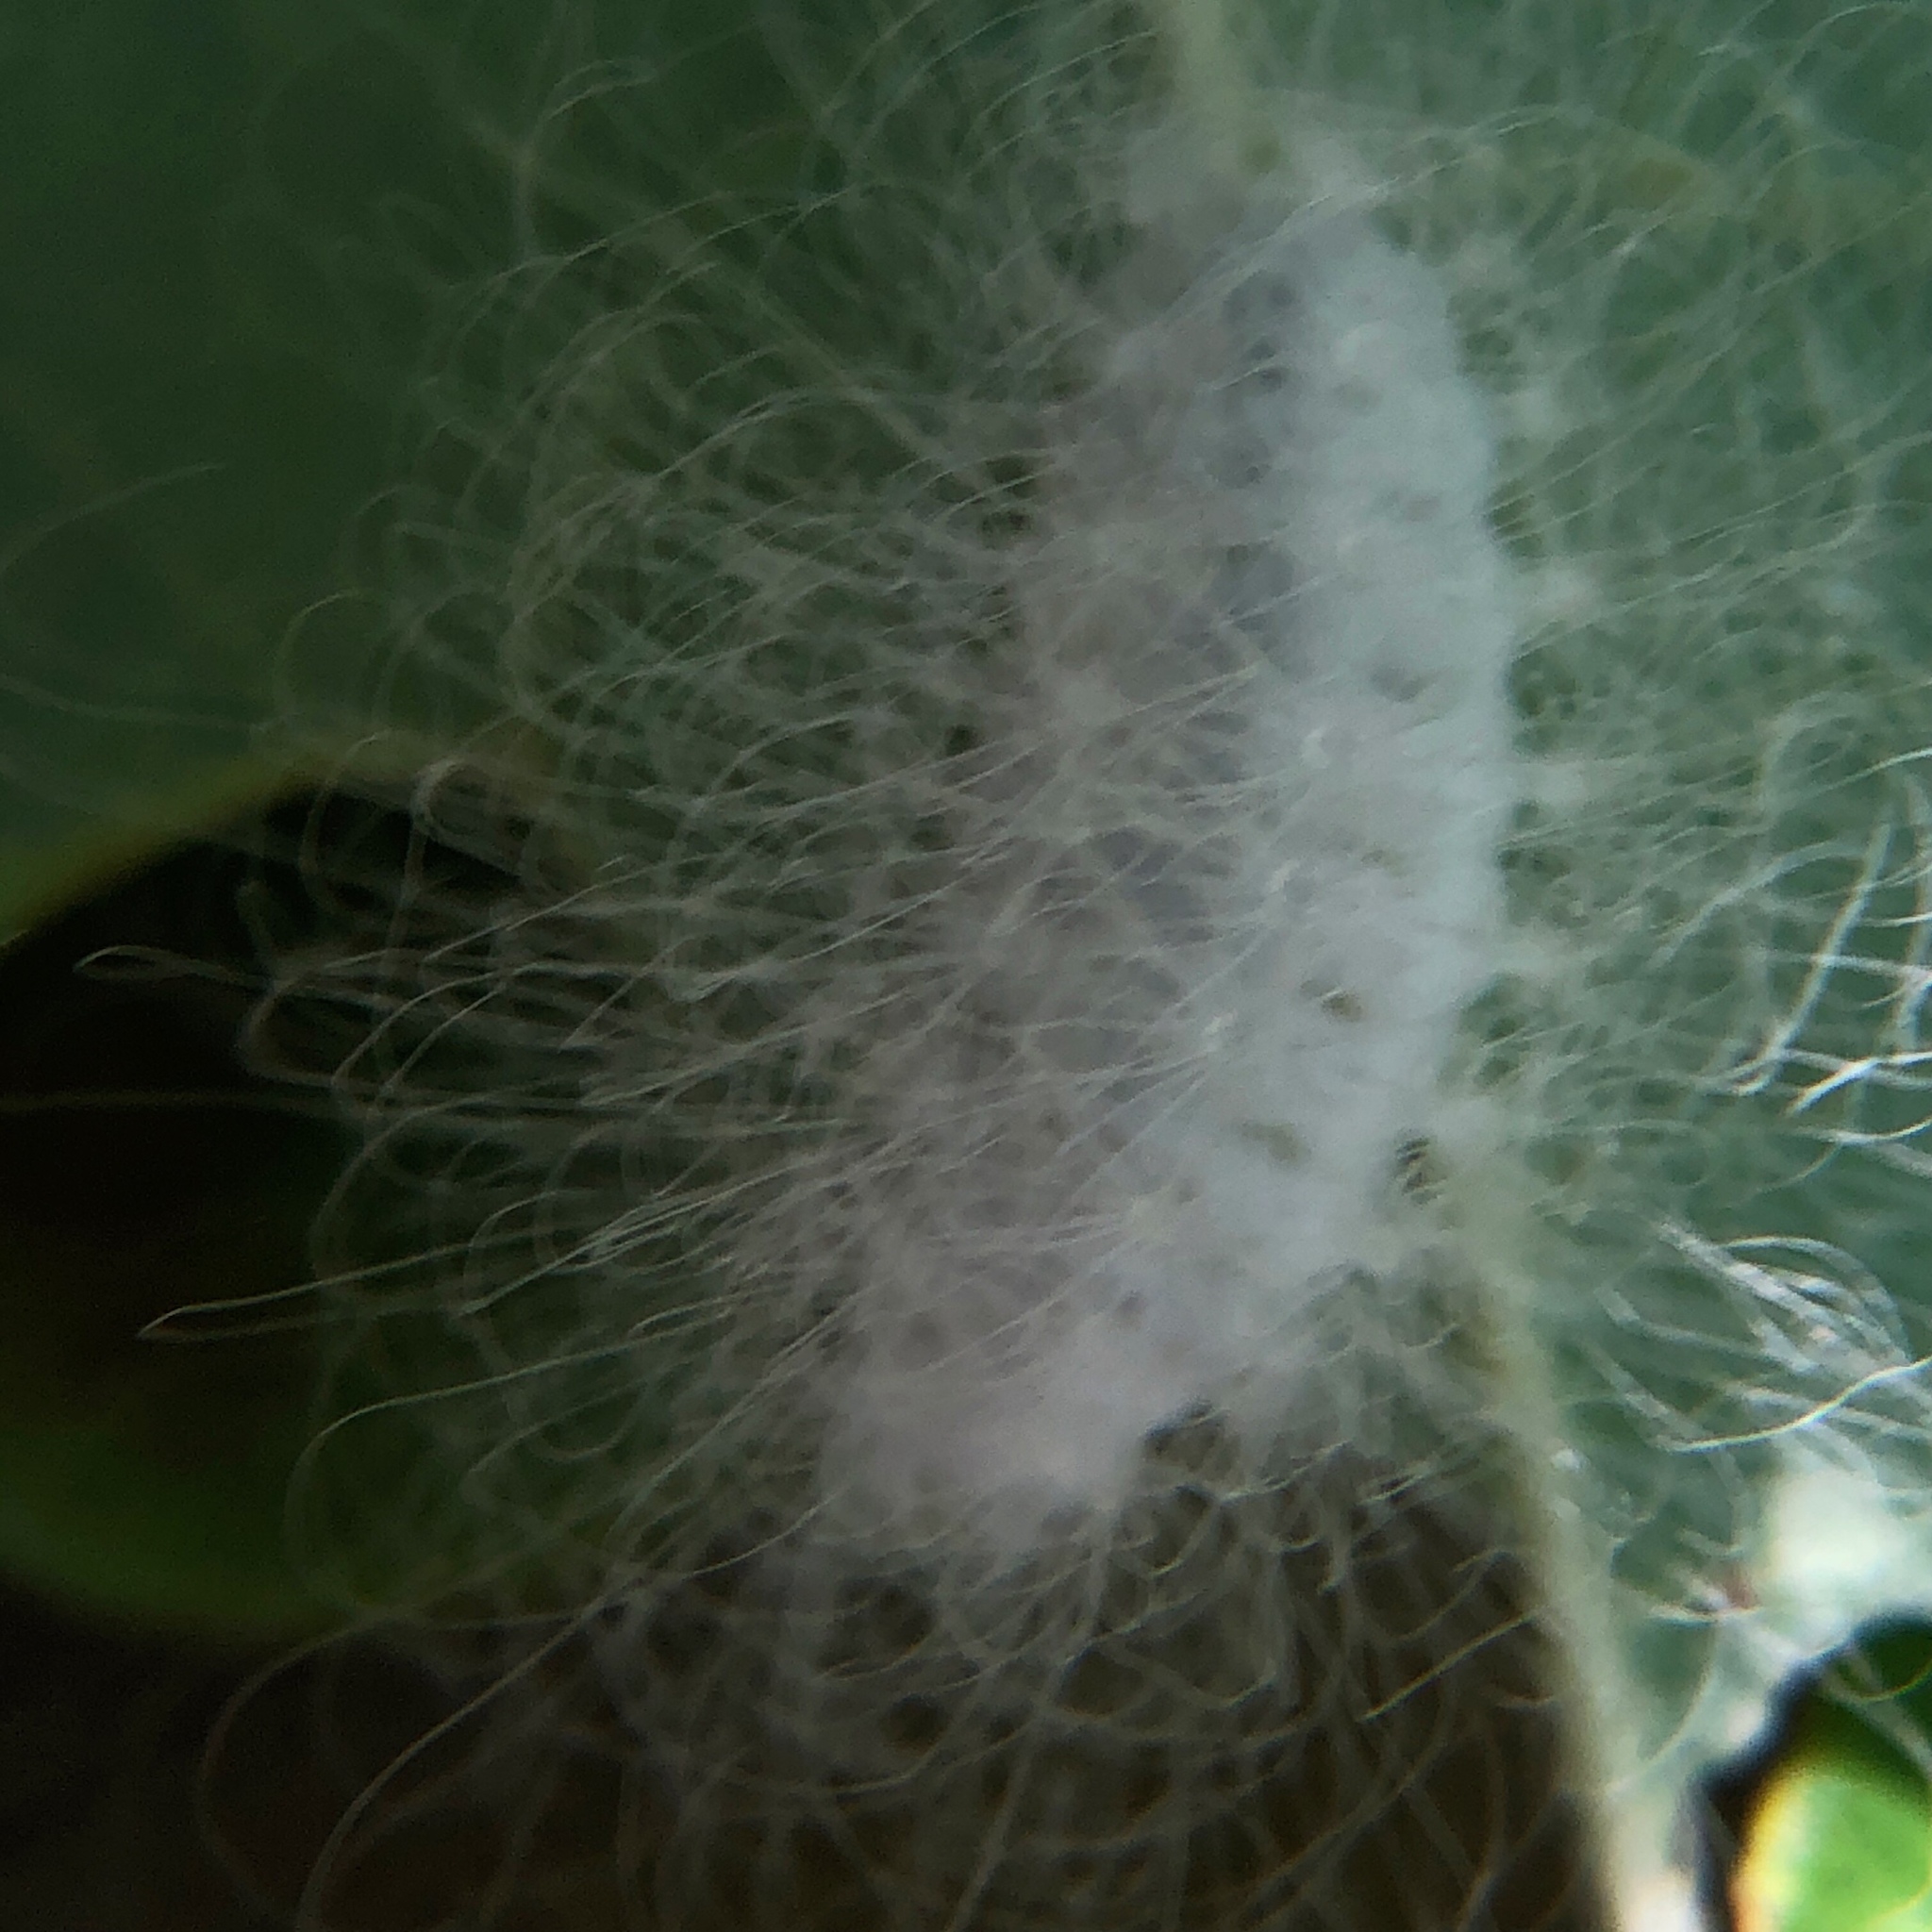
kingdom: Animalia
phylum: Arthropoda
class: Insecta
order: Lepidoptera
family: Megalopygidae
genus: Megalopyge
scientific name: Megalopyge crispata
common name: Black-waved flannel moth
